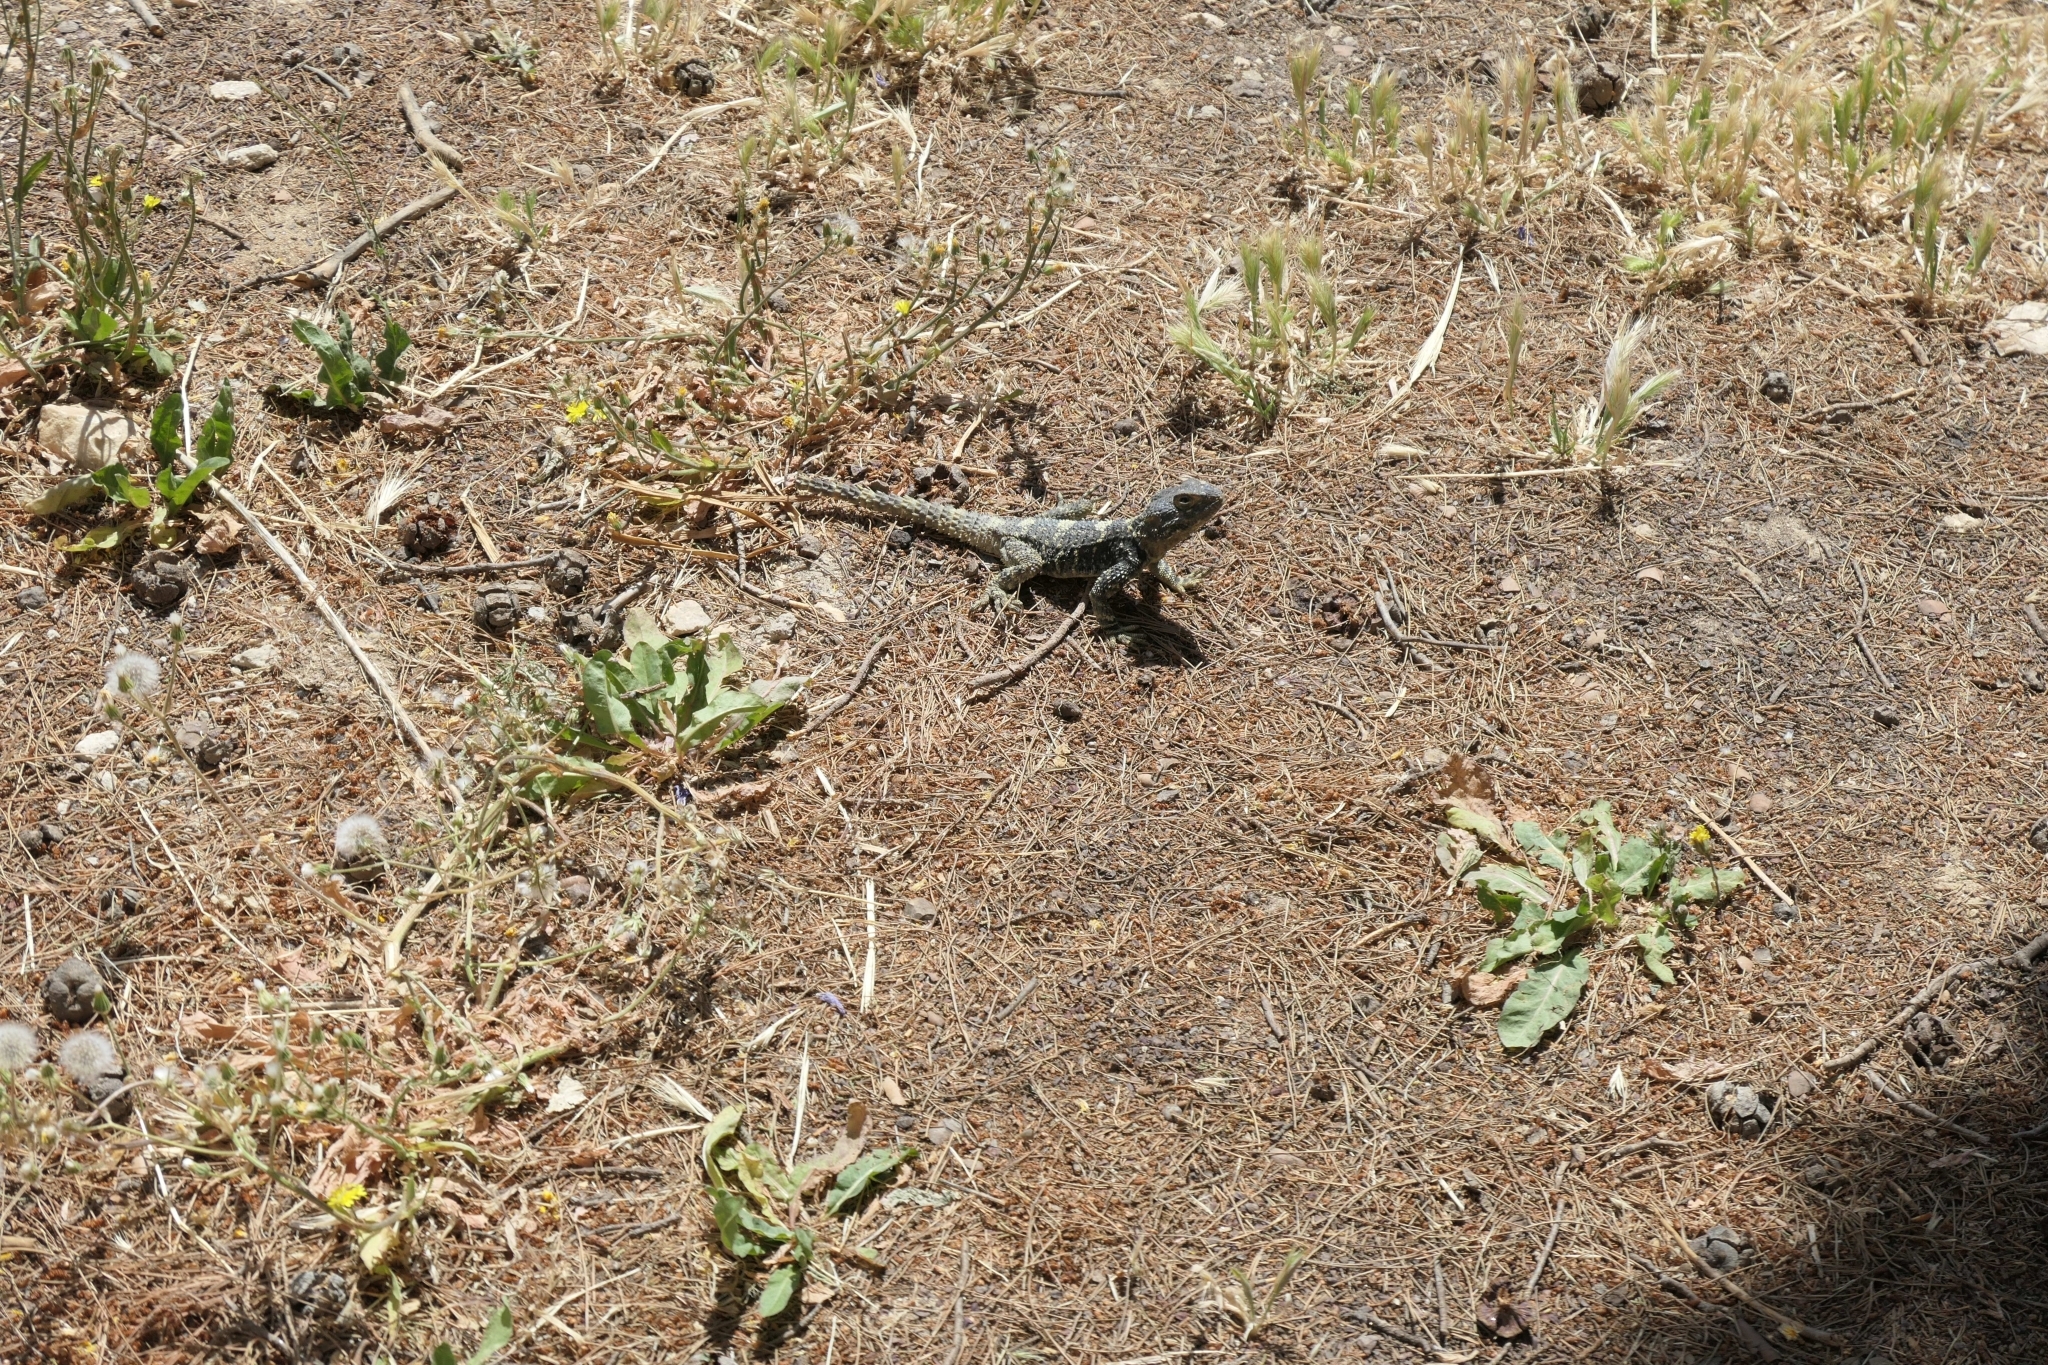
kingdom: Animalia
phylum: Chordata
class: Squamata
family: Agamidae
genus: Stellagama
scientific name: Stellagama stellio
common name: Starred agama
